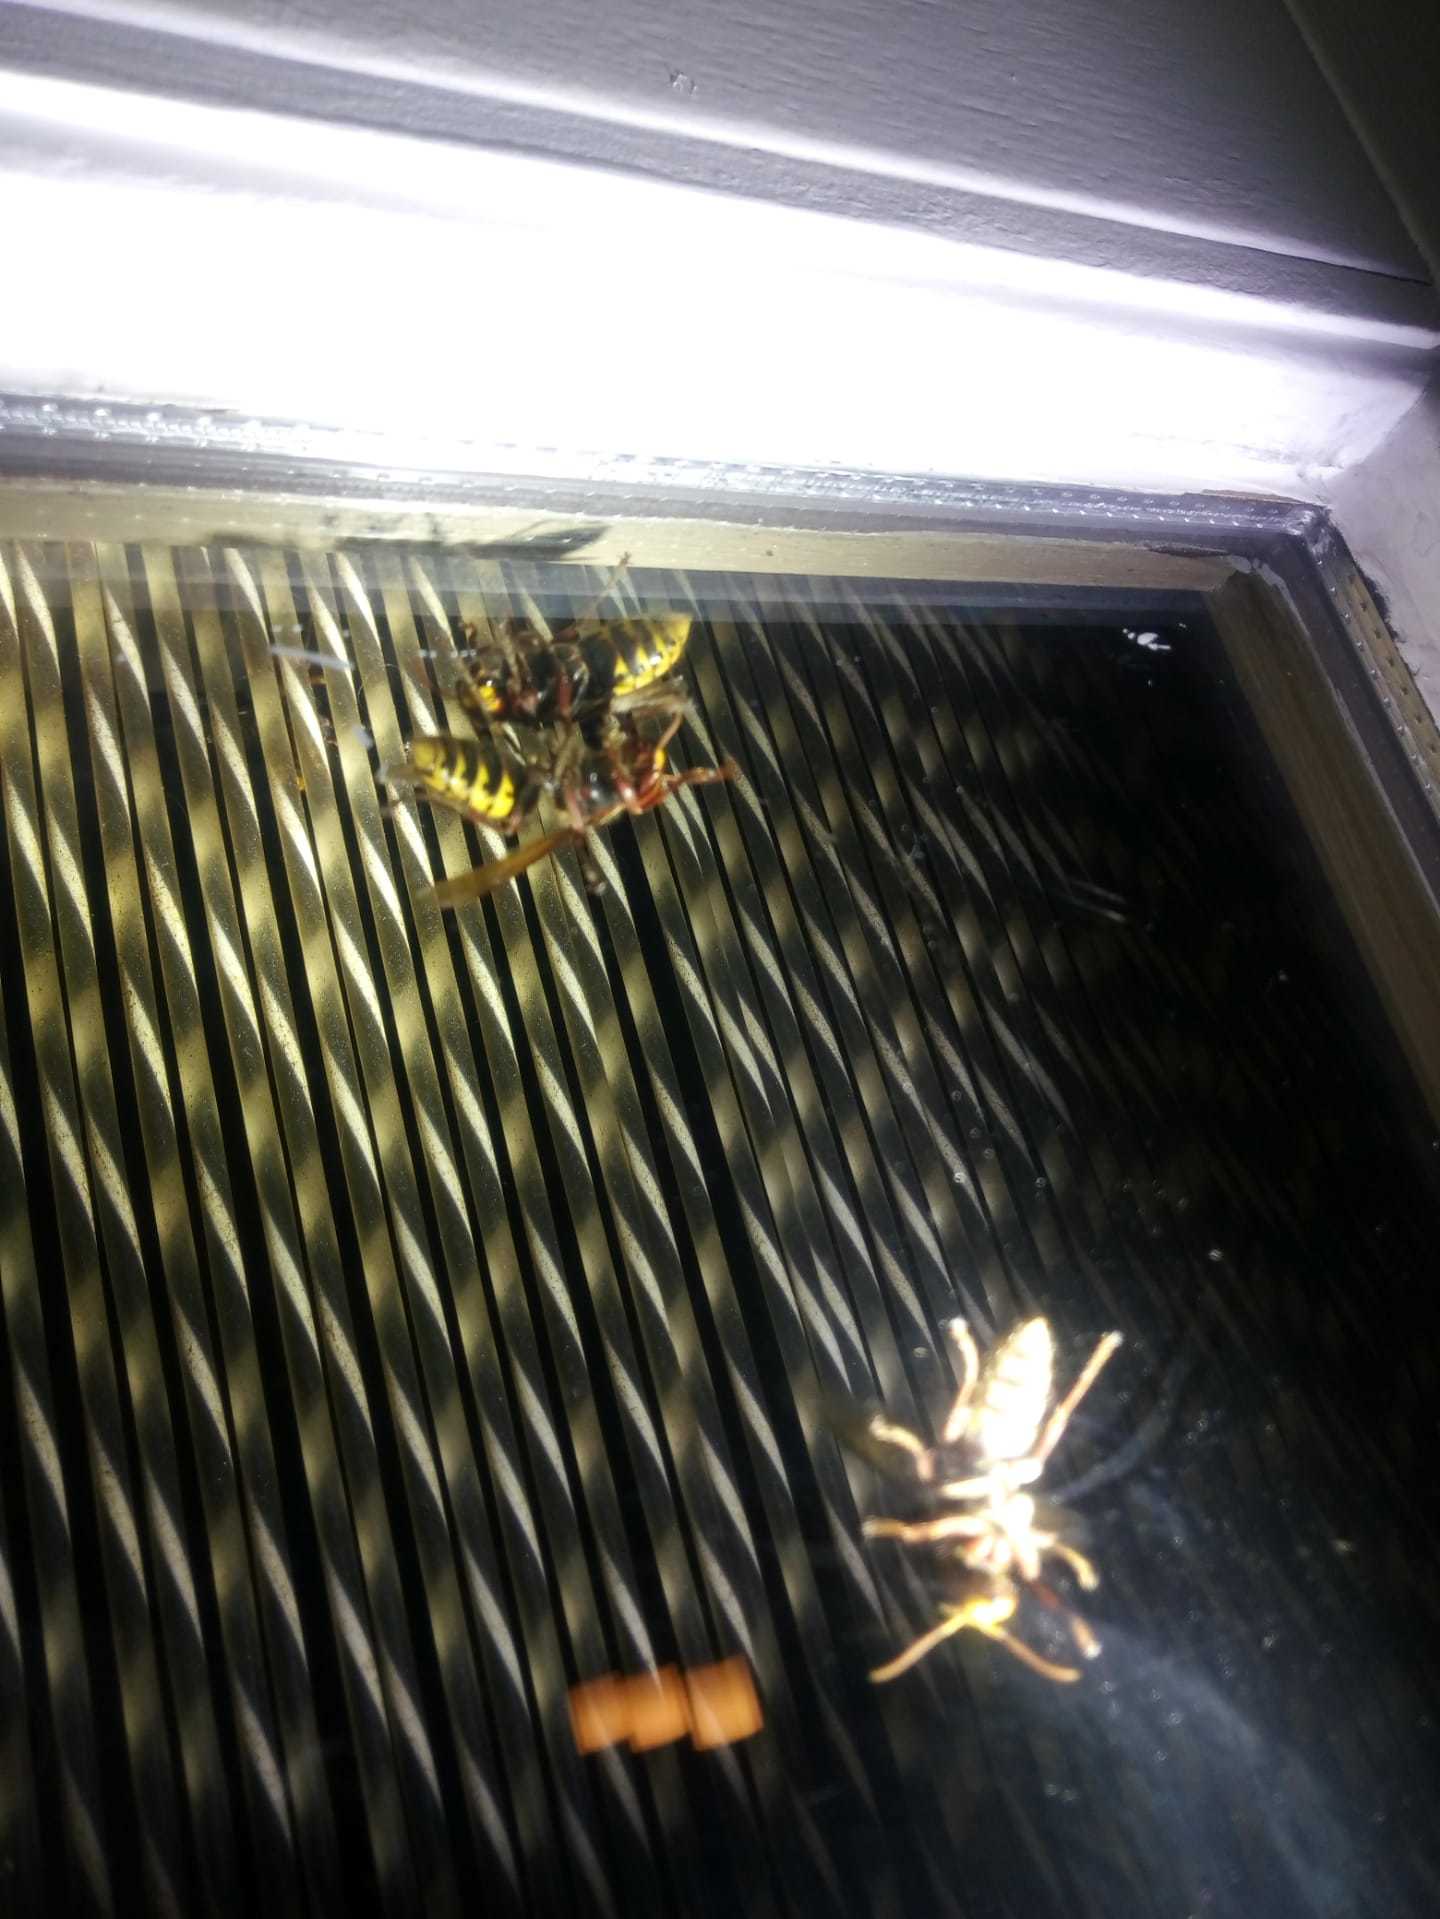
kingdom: Animalia
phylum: Arthropoda
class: Insecta
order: Hymenoptera
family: Vespidae
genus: Vespa
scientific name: Vespa crabro
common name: Hornet
